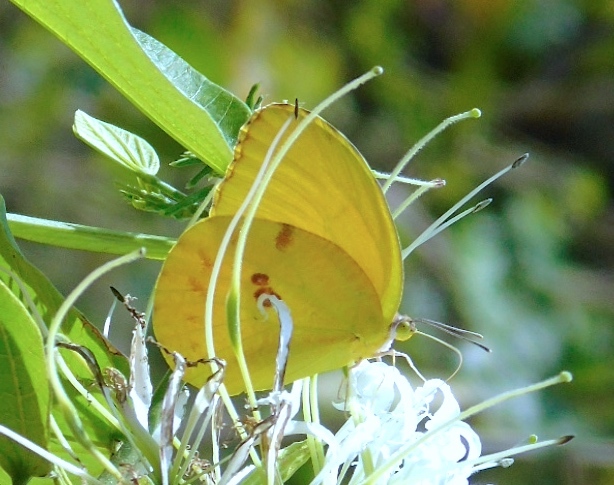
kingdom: Animalia
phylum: Arthropoda
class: Insecta
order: Lepidoptera
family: Pieridae
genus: Prestonia
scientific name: Prestonia clarki
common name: West-mexican sulphur
